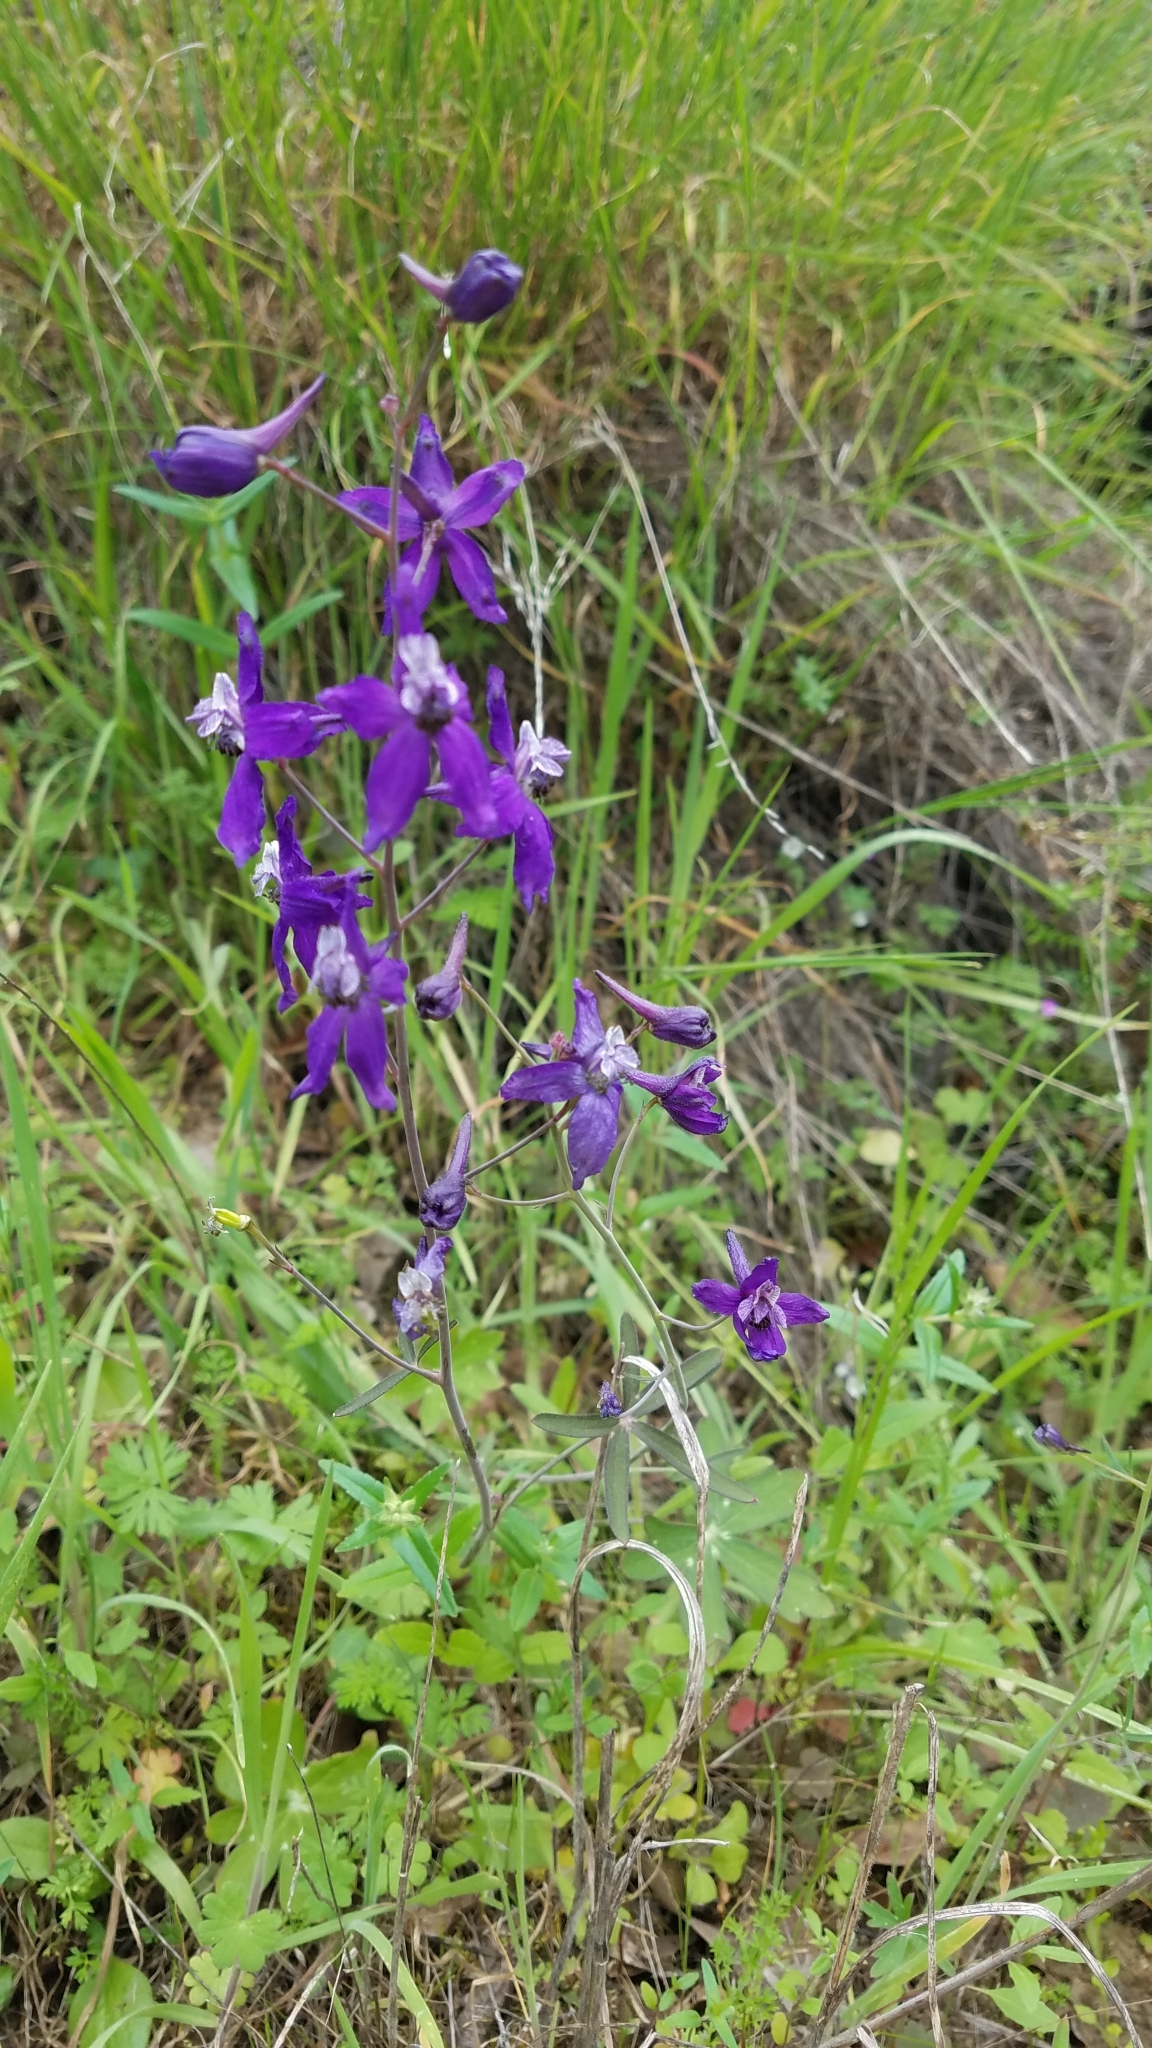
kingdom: Plantae
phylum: Tracheophyta
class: Magnoliopsida
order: Ranunculales
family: Ranunculaceae
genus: Delphinium
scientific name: Delphinium patens
